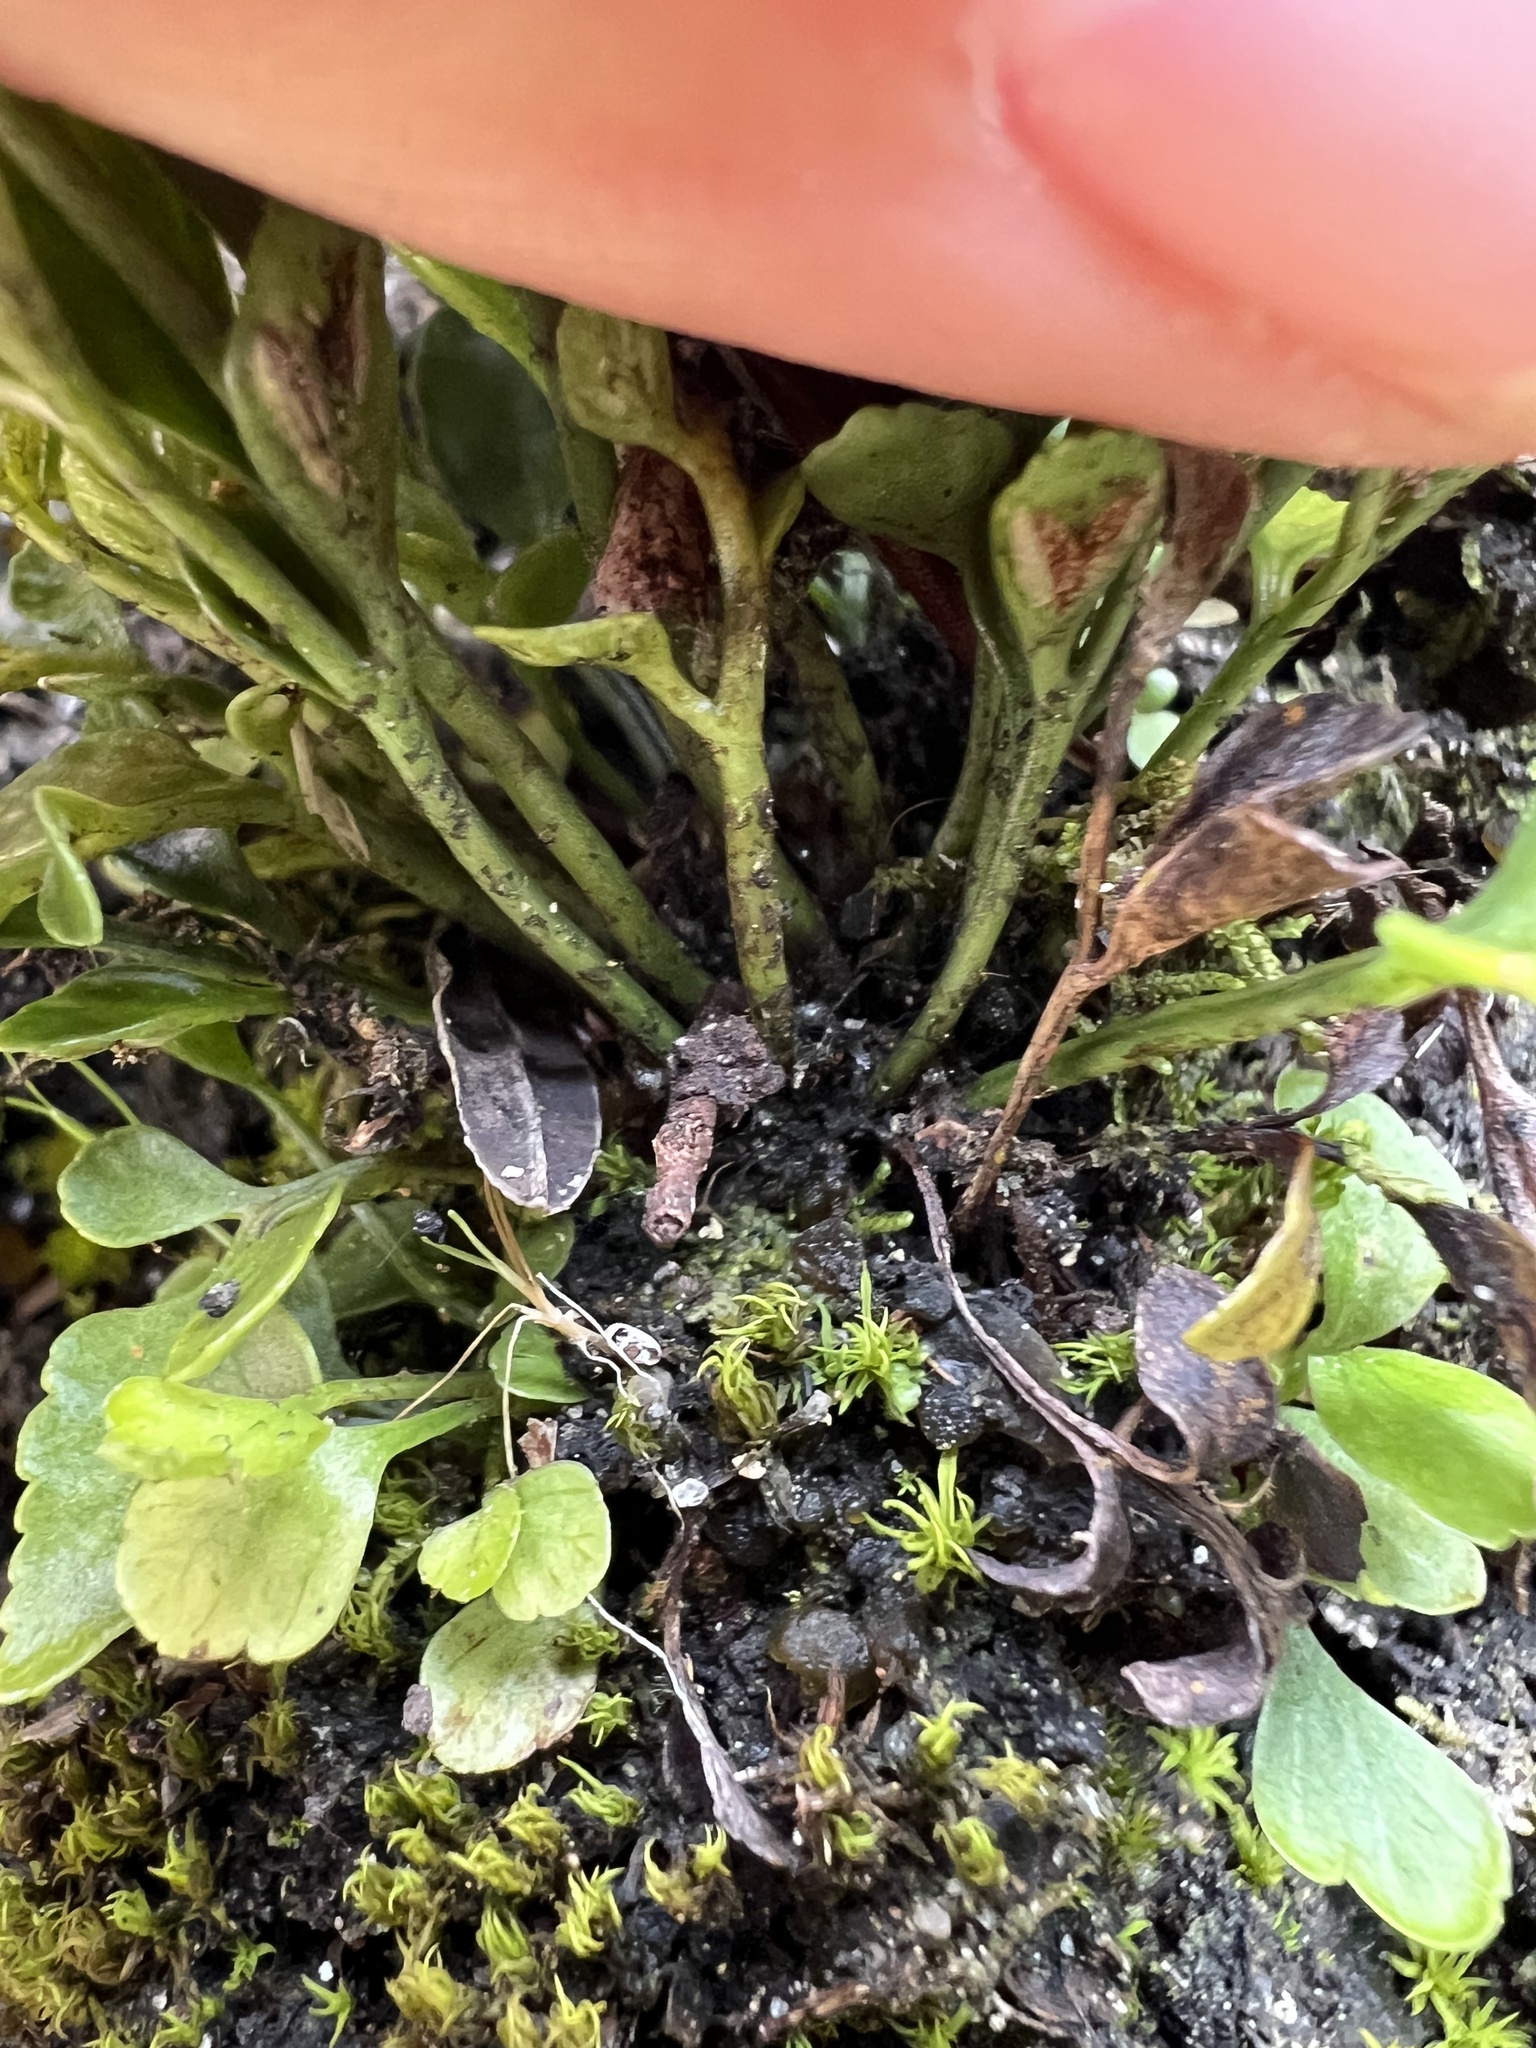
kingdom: Plantae
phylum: Tracheophyta
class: Polypodiopsida
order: Polypodiales
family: Aspleniaceae
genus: Asplenium
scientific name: Asplenium lyallii
